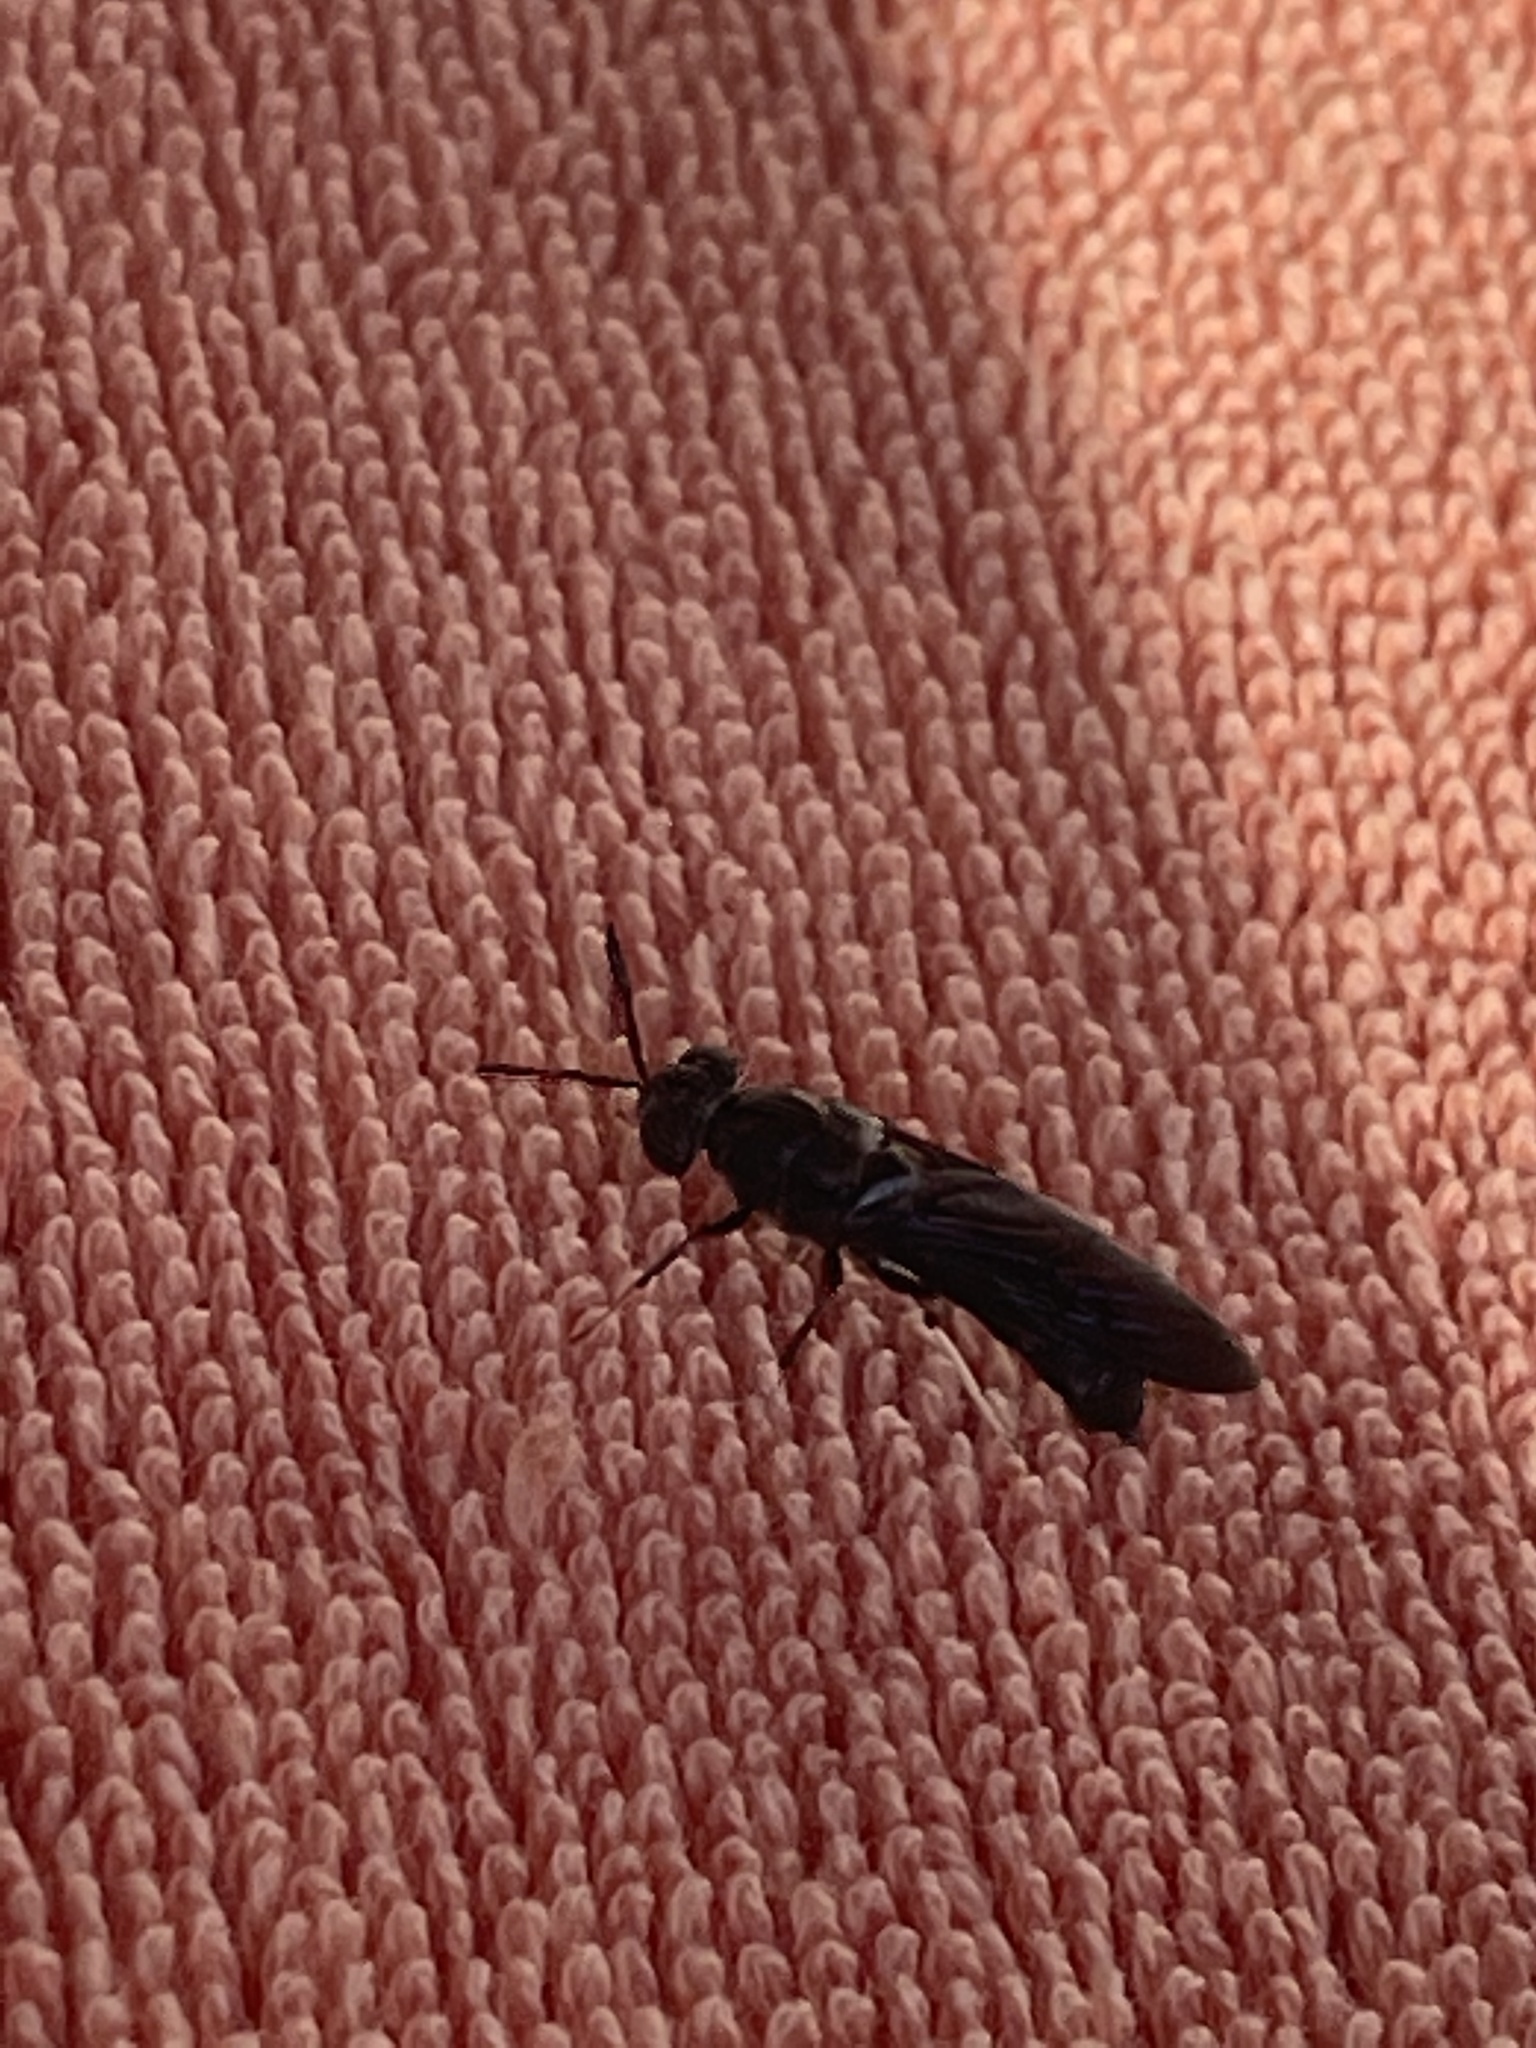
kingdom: Animalia
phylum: Arthropoda
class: Insecta
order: Diptera
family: Stratiomyidae
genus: Hermetia
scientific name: Hermetia illucens
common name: Black soldier fly
